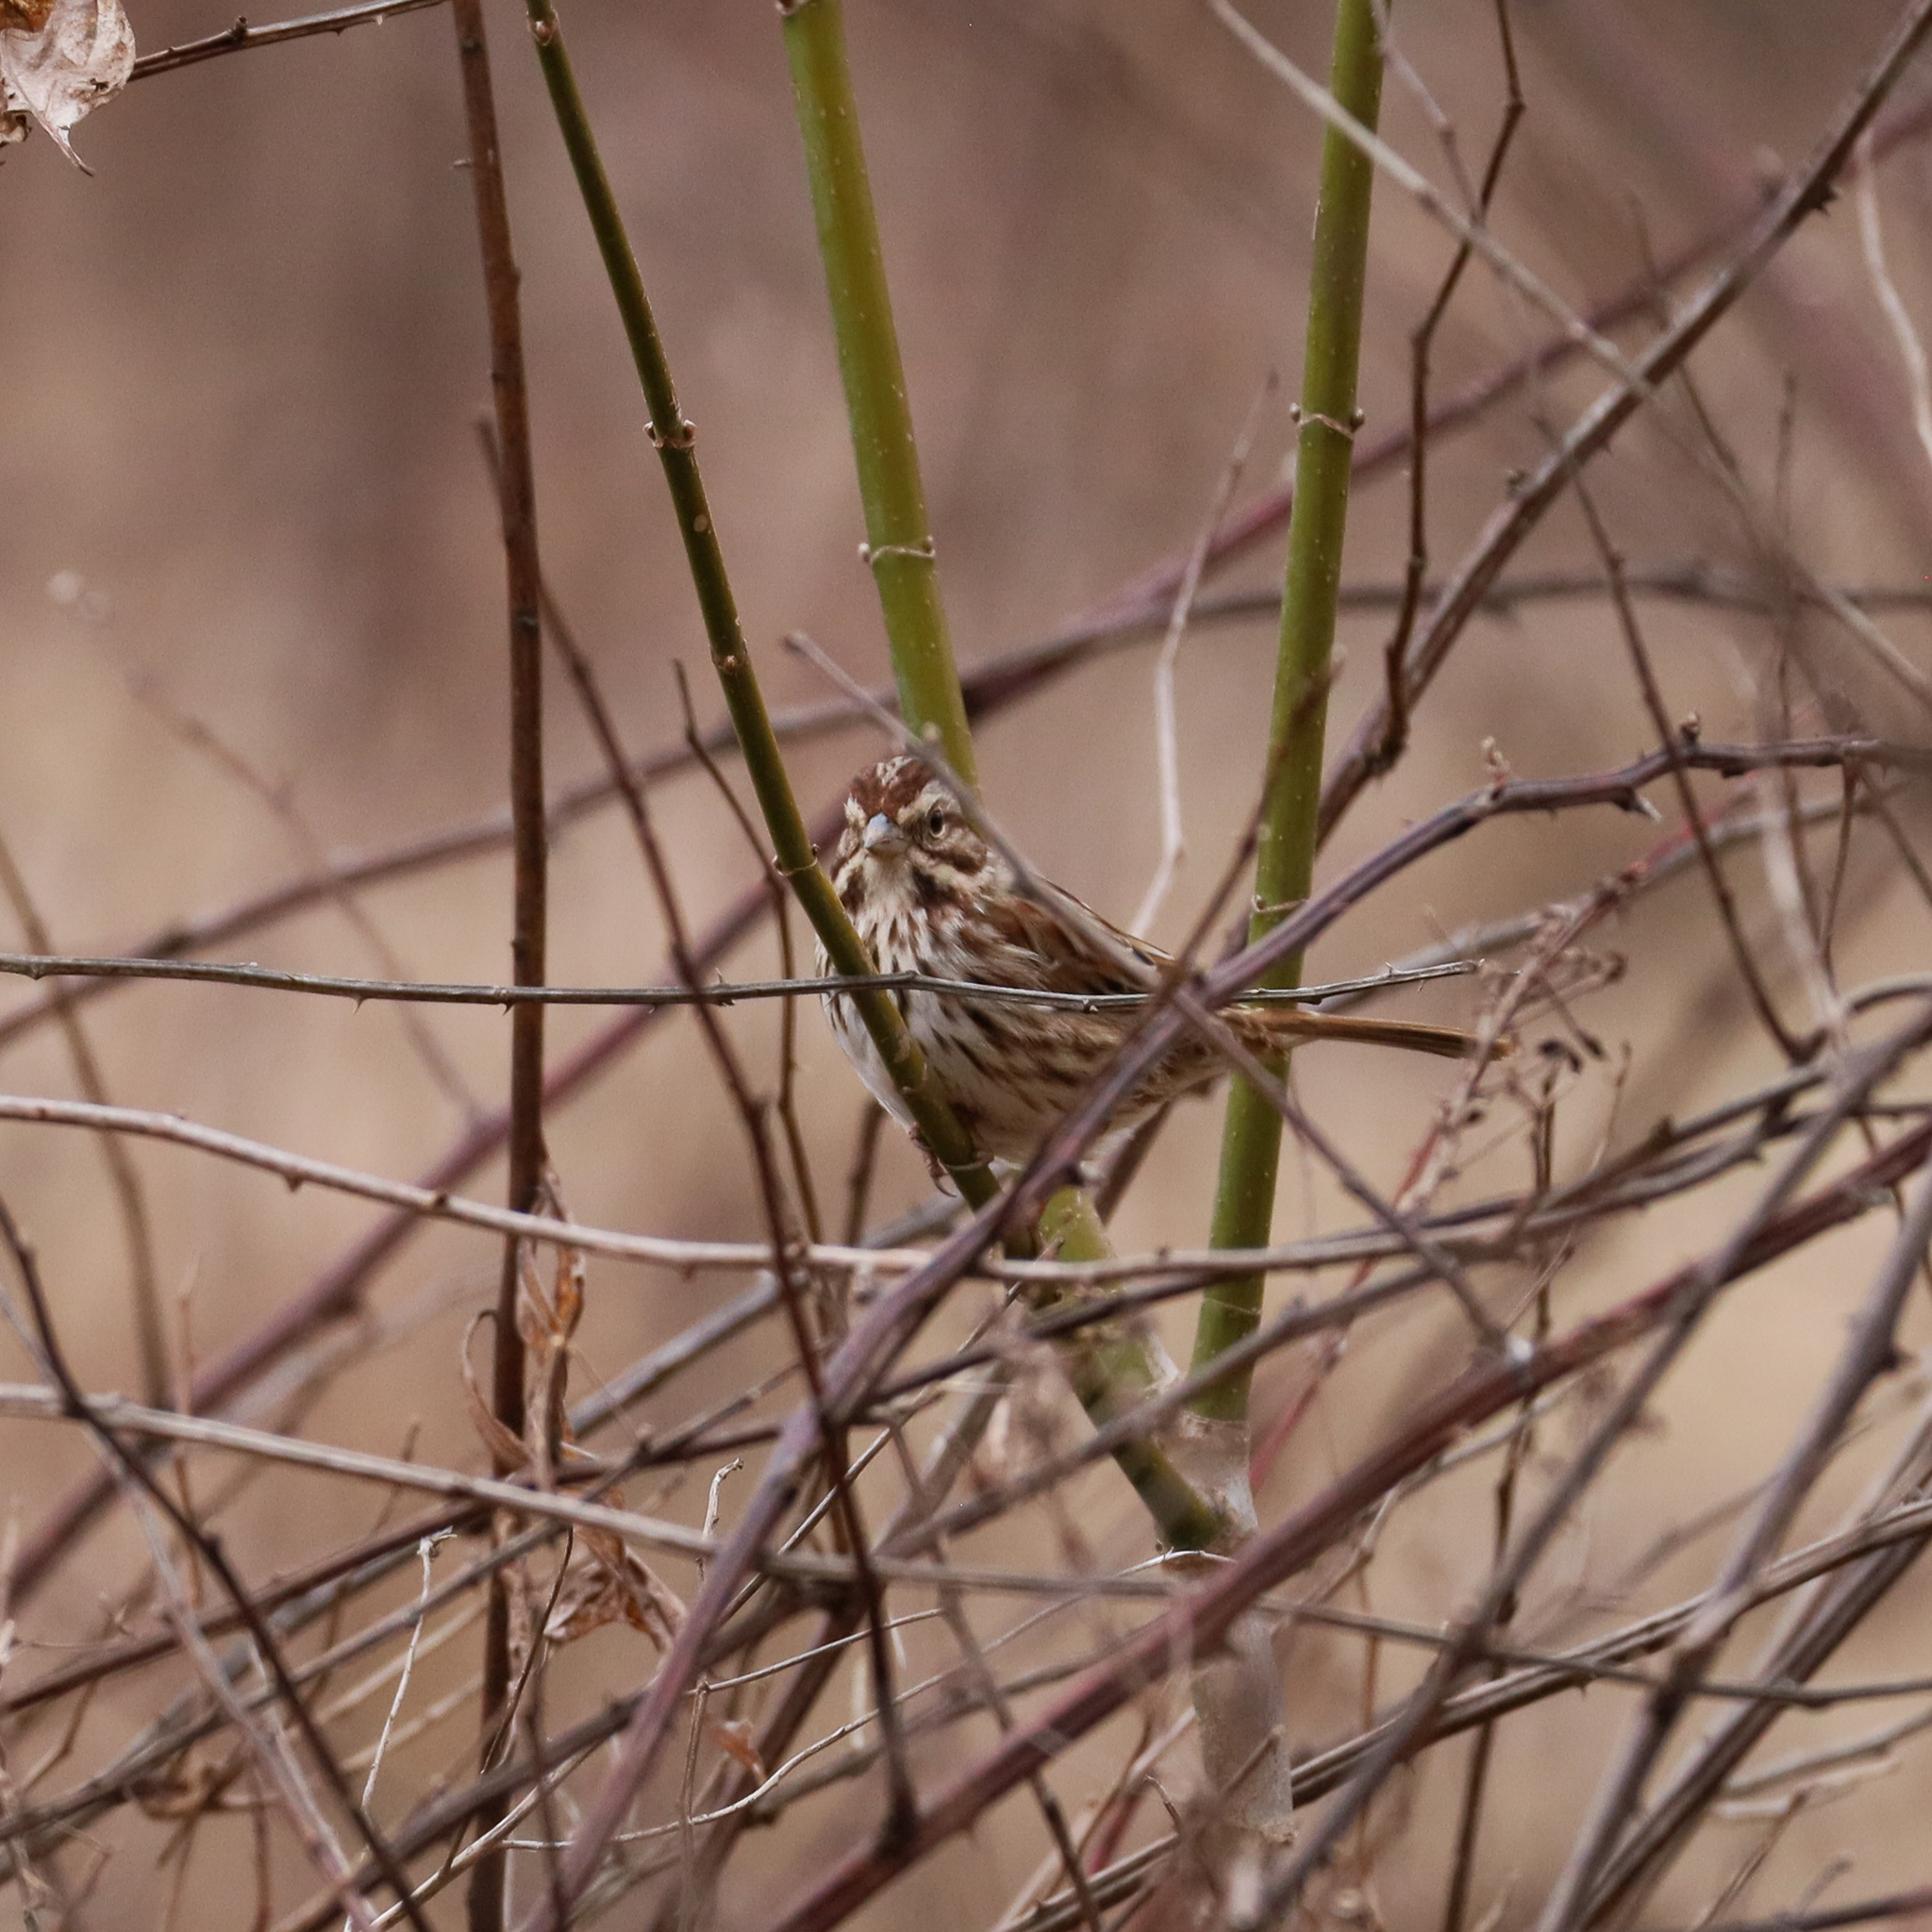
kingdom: Animalia
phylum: Chordata
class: Aves
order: Passeriformes
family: Passerellidae
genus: Melospiza
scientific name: Melospiza melodia
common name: Song sparrow
